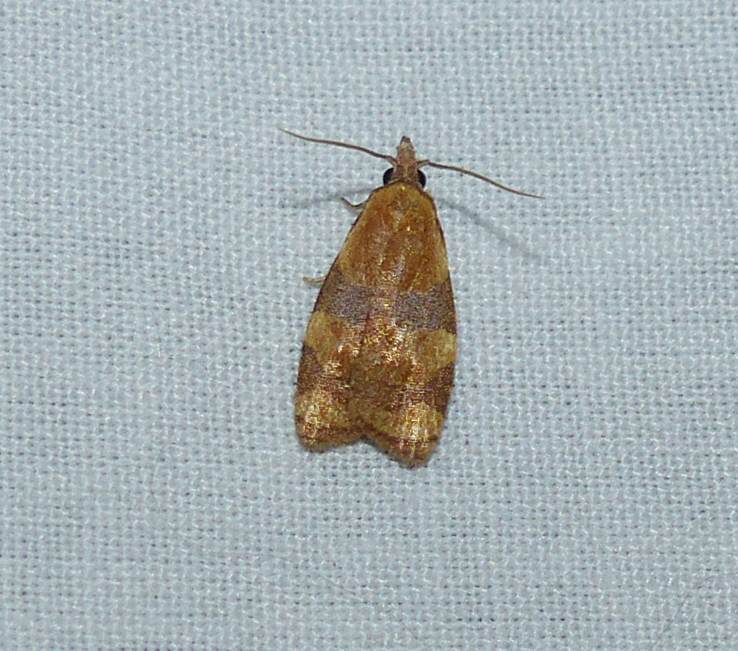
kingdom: Animalia
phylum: Arthropoda
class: Insecta
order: Lepidoptera
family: Tortricidae
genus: Cenopis
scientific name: Cenopis diluticostana
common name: Spring dead-leaf roller moth
